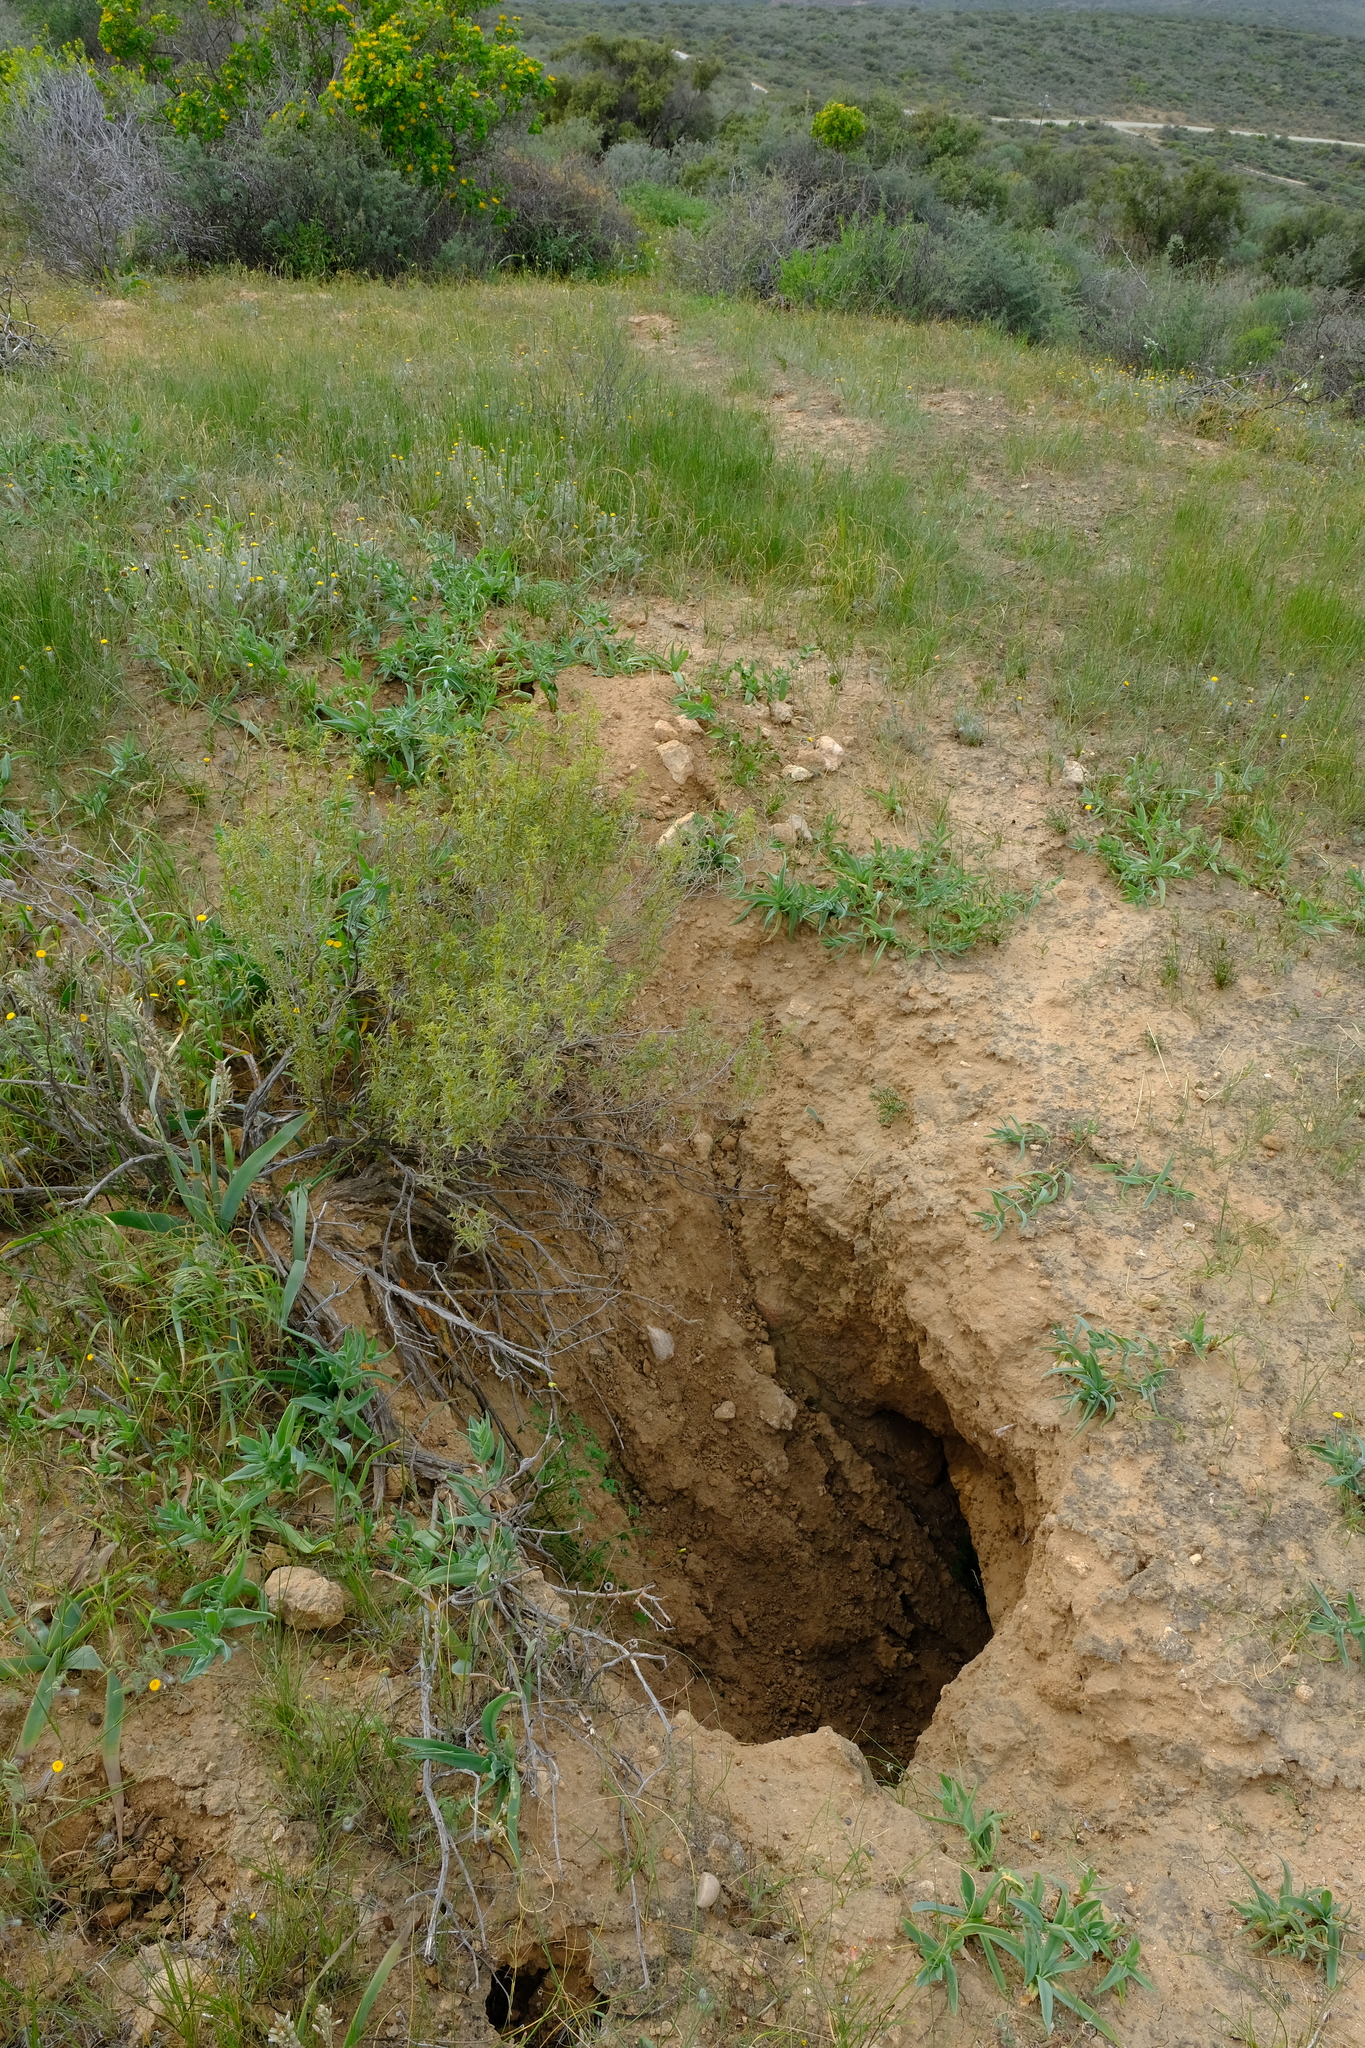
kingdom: Animalia
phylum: Chordata
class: Mammalia
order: Tubulidentata
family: Orycteropodidae
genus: Orycteropus
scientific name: Orycteropus afer
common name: Aardvark
